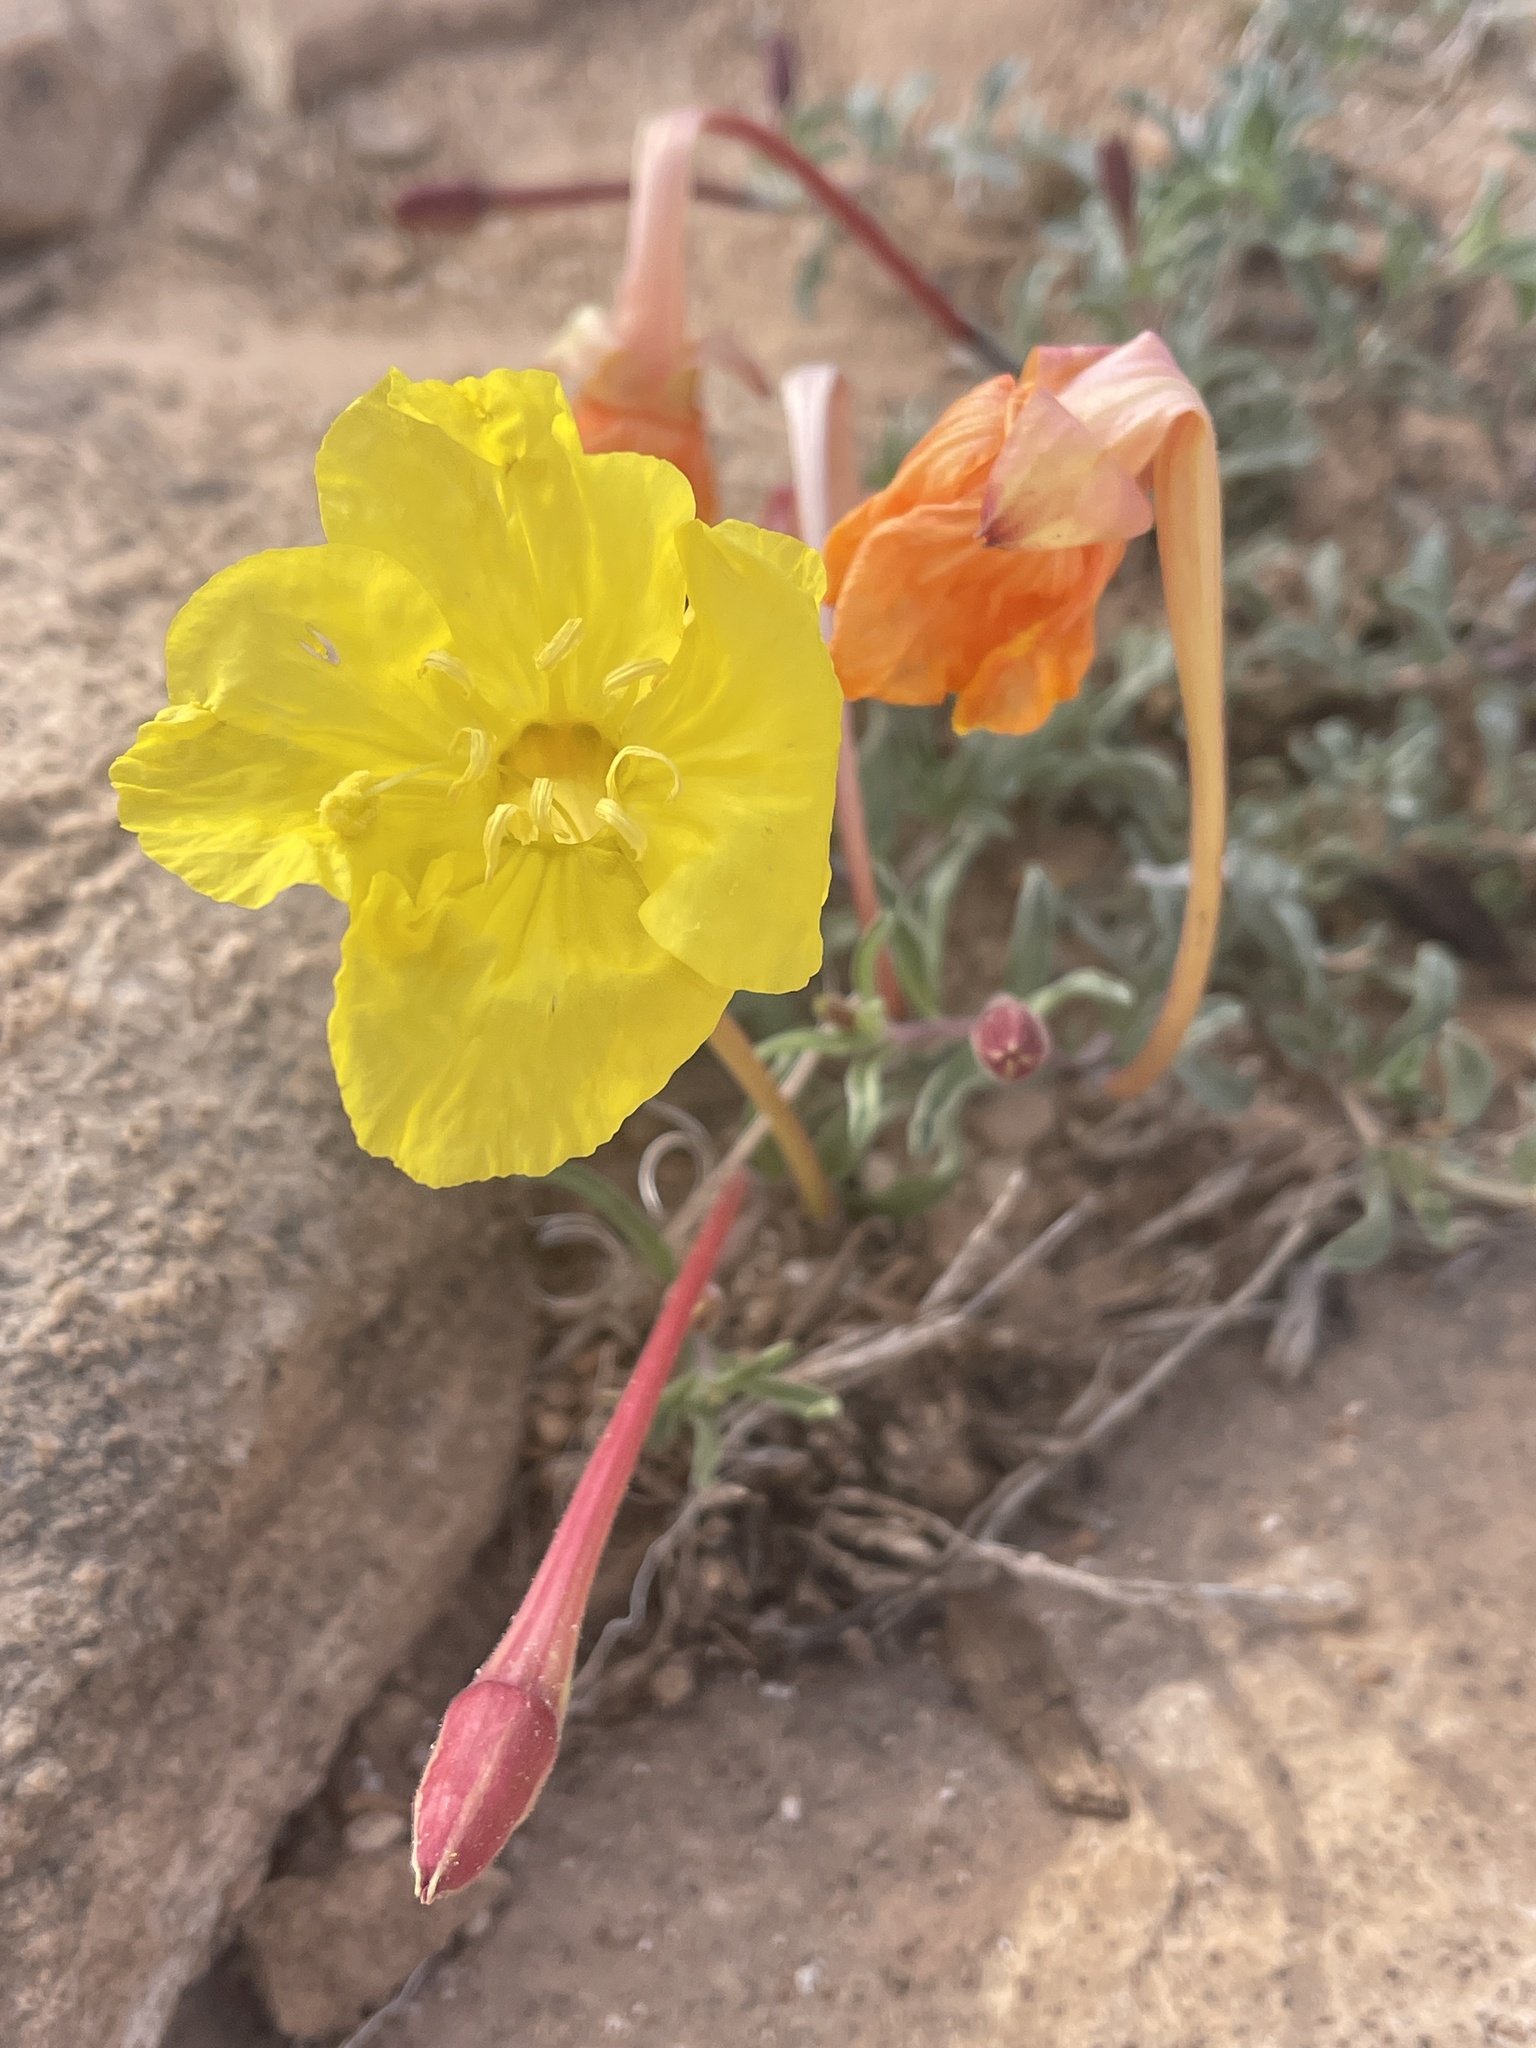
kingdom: Plantae
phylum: Tracheophyta
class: Magnoliopsida
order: Myrtales
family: Onagraceae
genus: Oenothera
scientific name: Oenothera lavandulifolia
